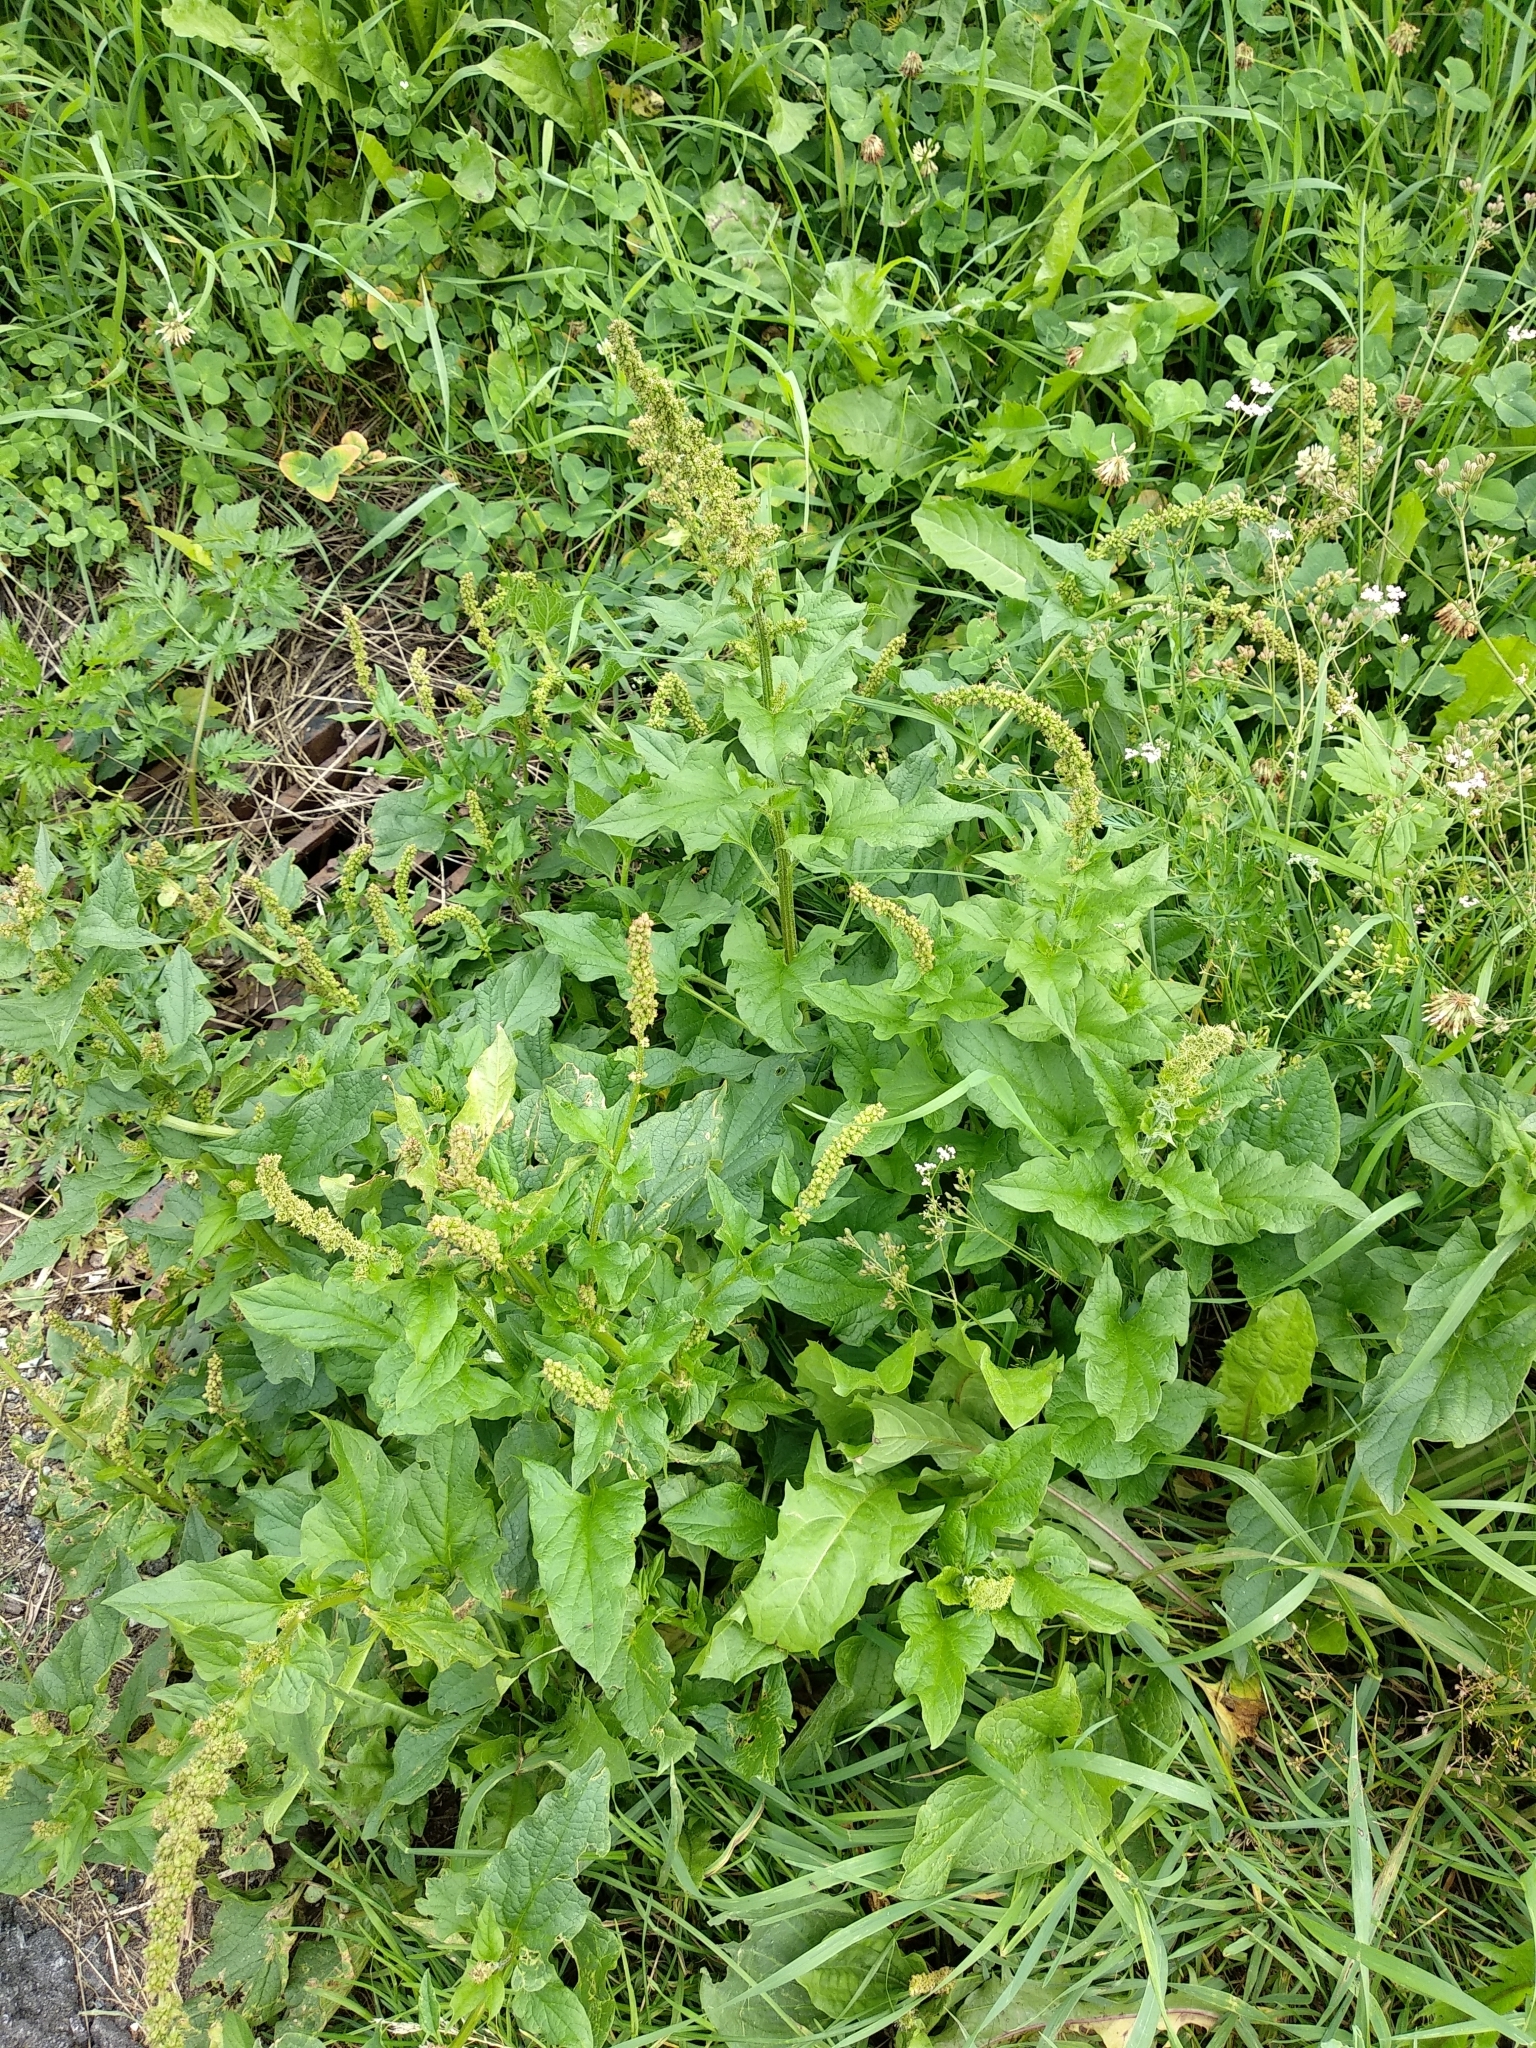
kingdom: Plantae
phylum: Tracheophyta
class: Magnoliopsida
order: Caryophyllales
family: Amaranthaceae
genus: Blitum
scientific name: Blitum bonus-henricus
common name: Good king henry
